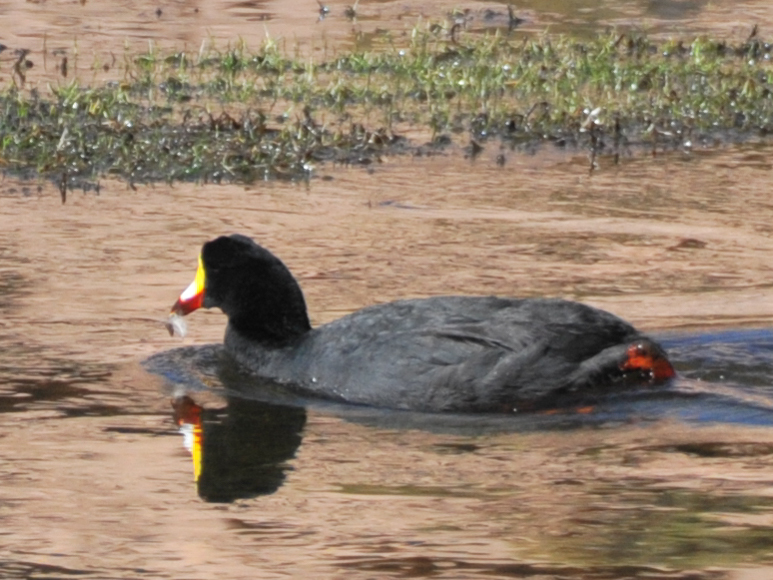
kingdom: Animalia
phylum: Chordata
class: Aves
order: Gruiformes
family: Rallidae
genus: Fulica
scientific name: Fulica gigantea
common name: Giant coot
